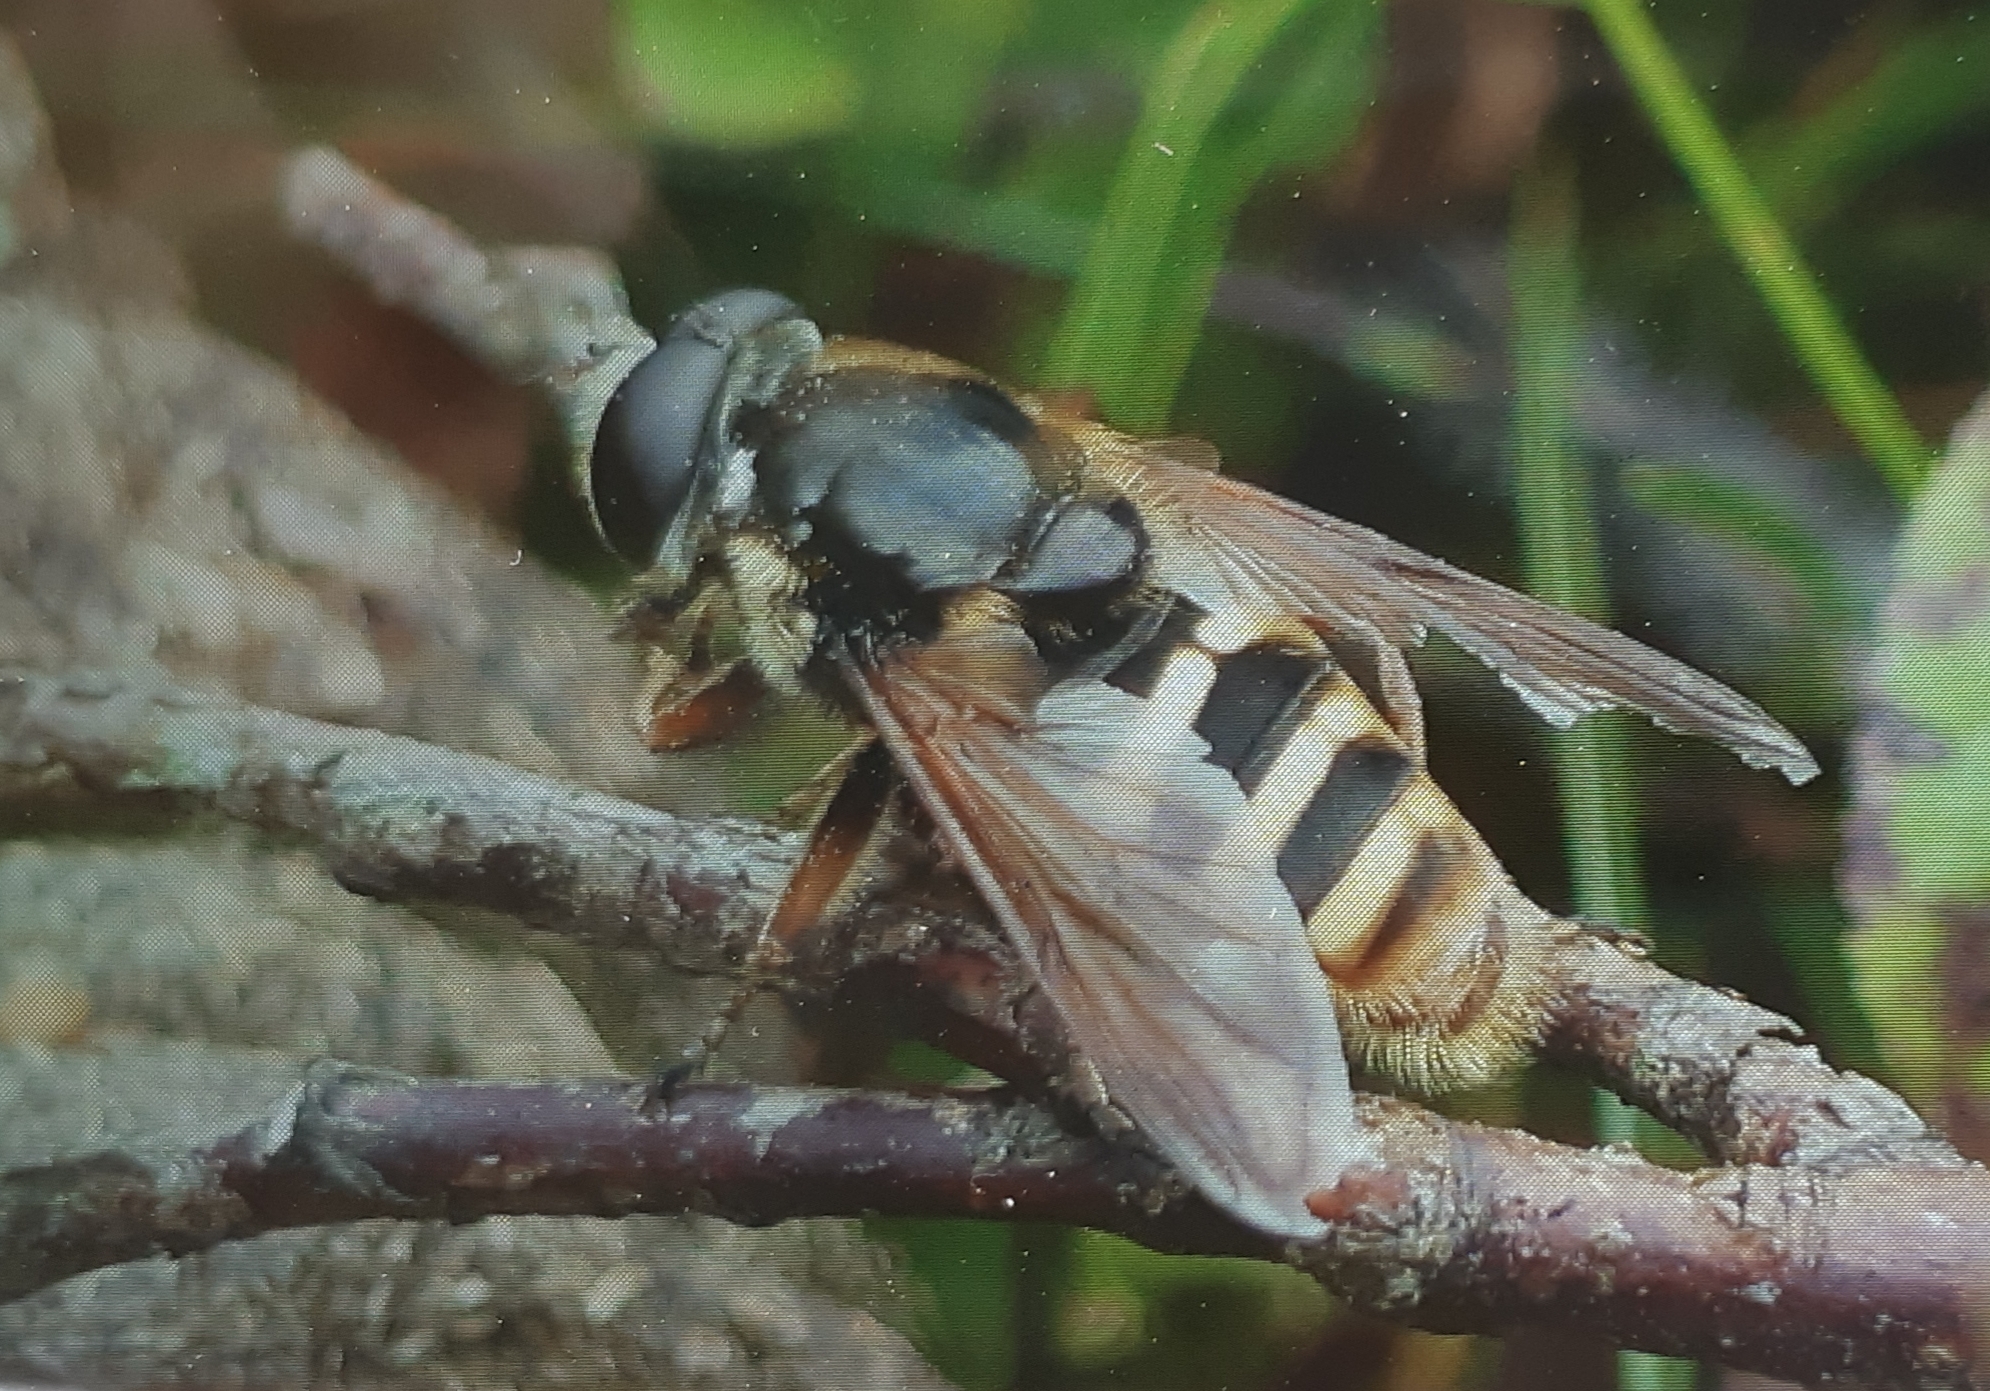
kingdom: Animalia
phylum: Arthropoda
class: Insecta
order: Diptera
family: Syrphidae
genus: Sericomyia
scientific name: Sericomyia silentis
